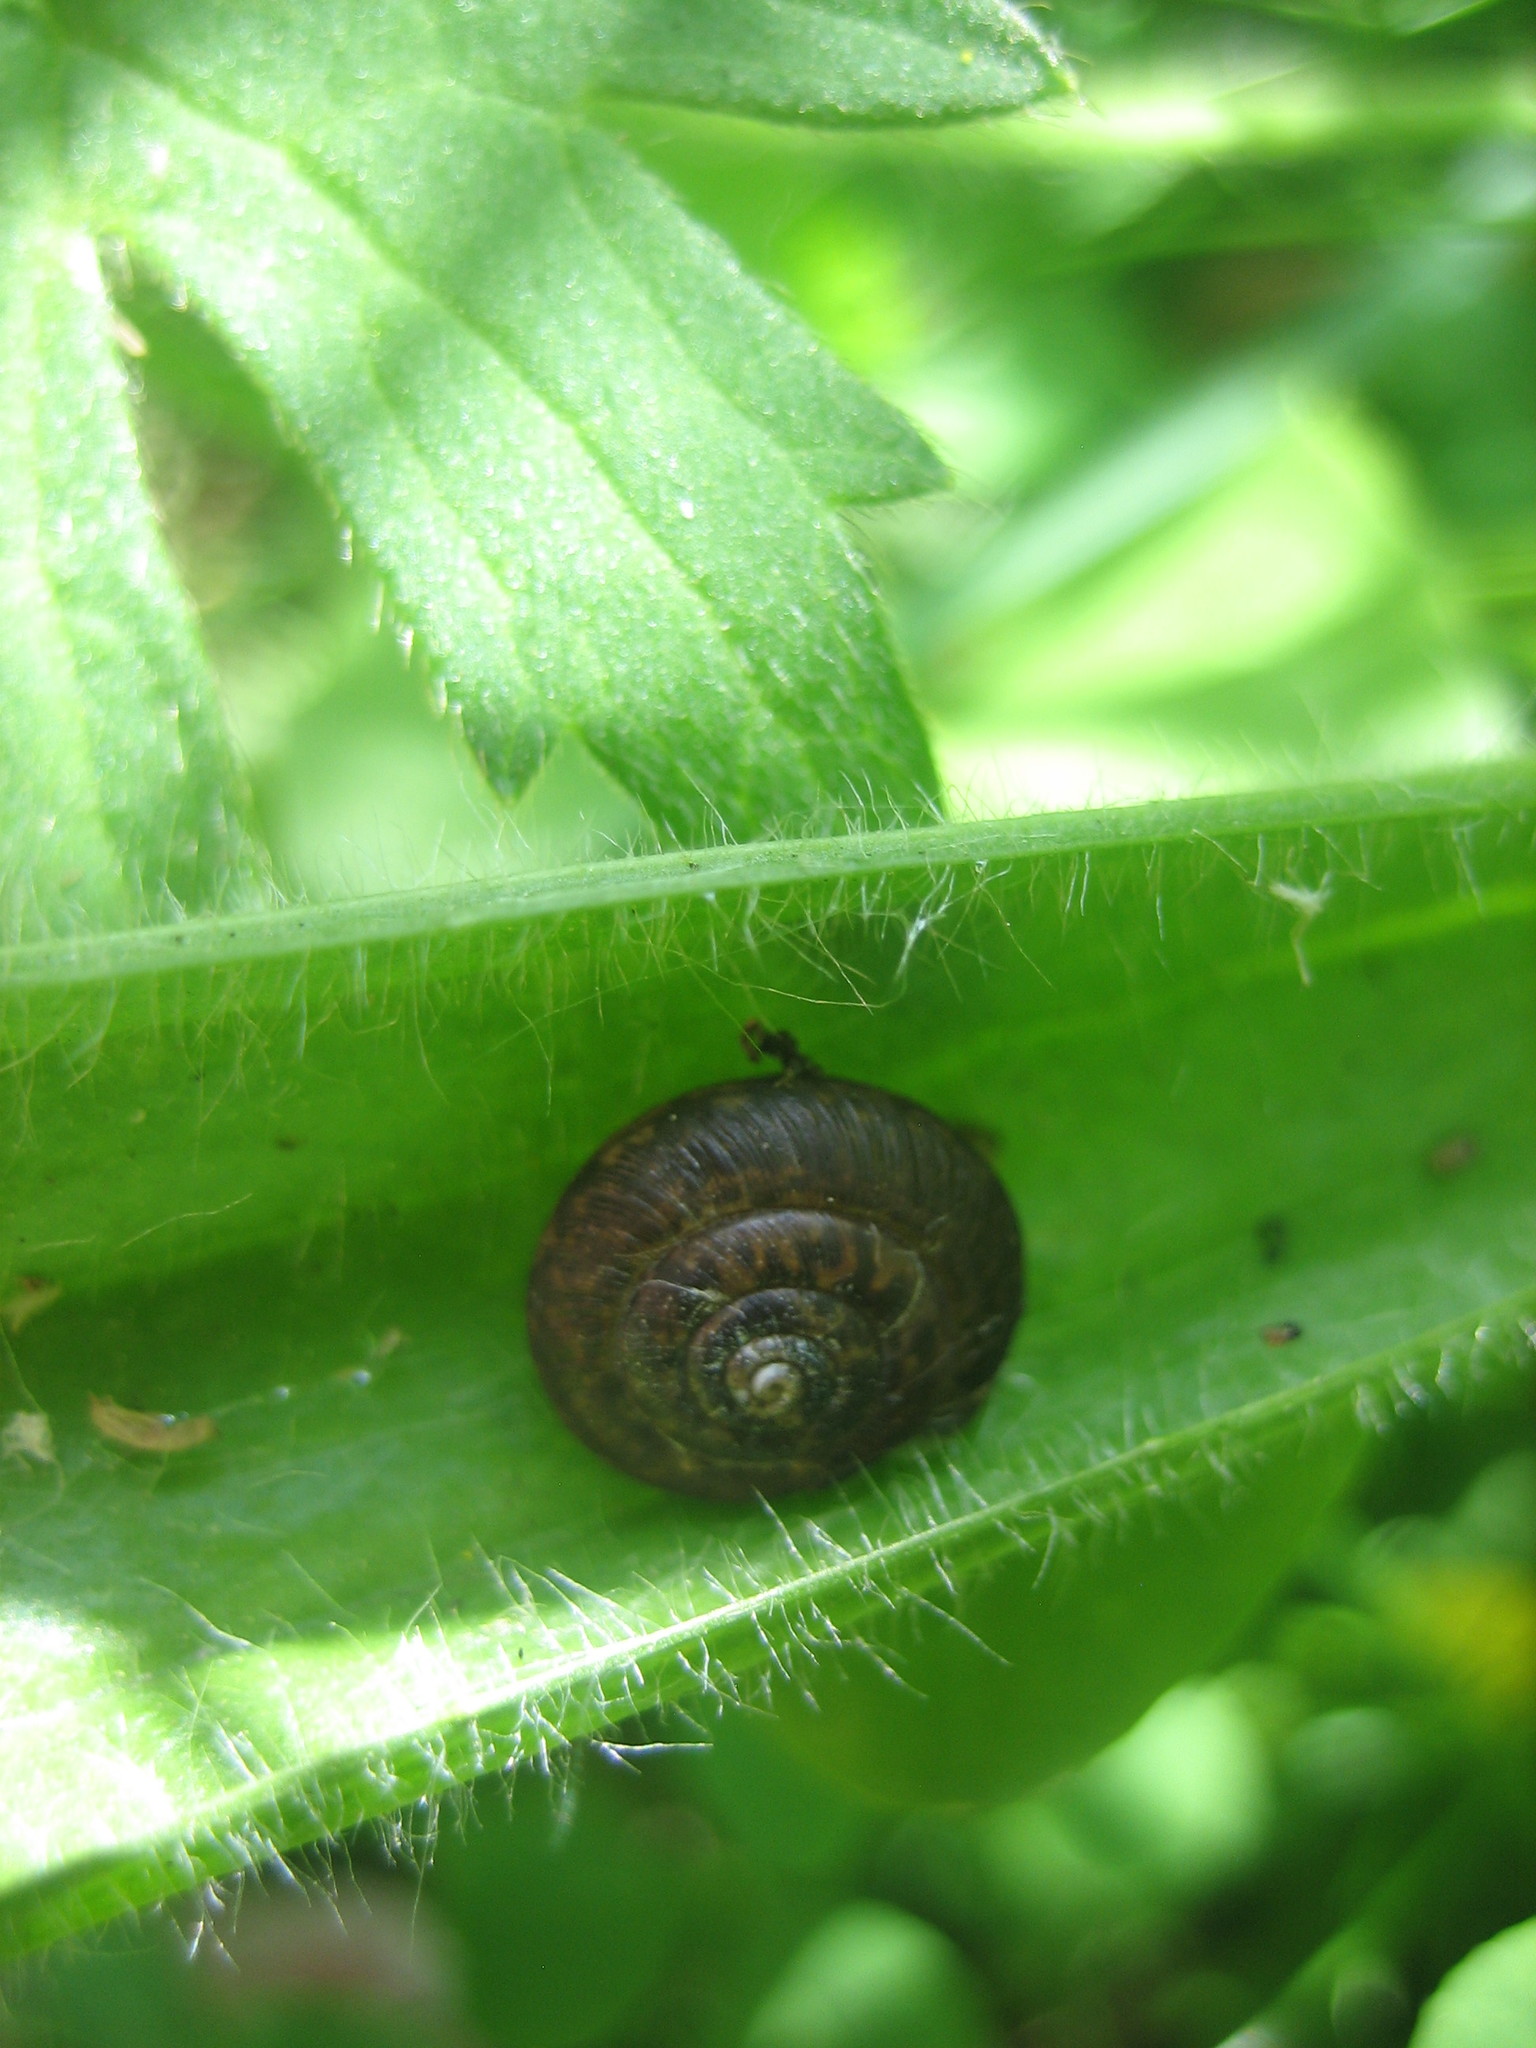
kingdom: Animalia
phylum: Mollusca
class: Gastropoda
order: Stylommatophora
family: Hygromiidae
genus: Trochulus
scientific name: Trochulus striolatus
